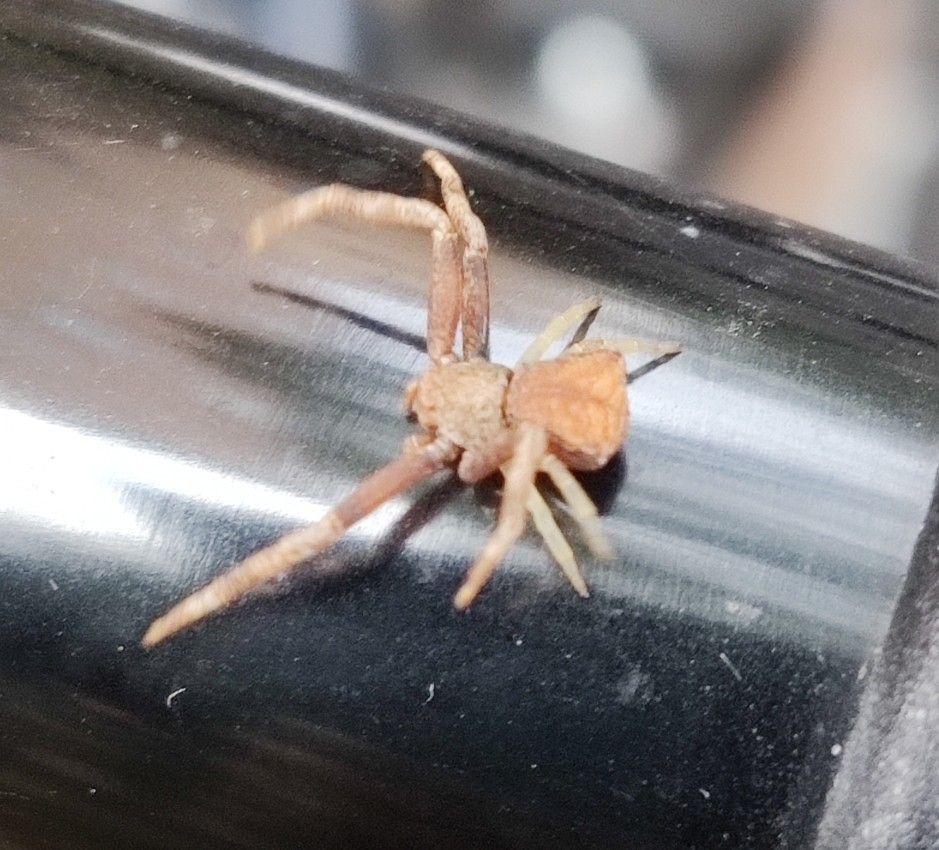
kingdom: Animalia
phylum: Arthropoda
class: Arachnida
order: Araneae
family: Thomisidae
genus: Pistius
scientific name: Pistius truncatus
